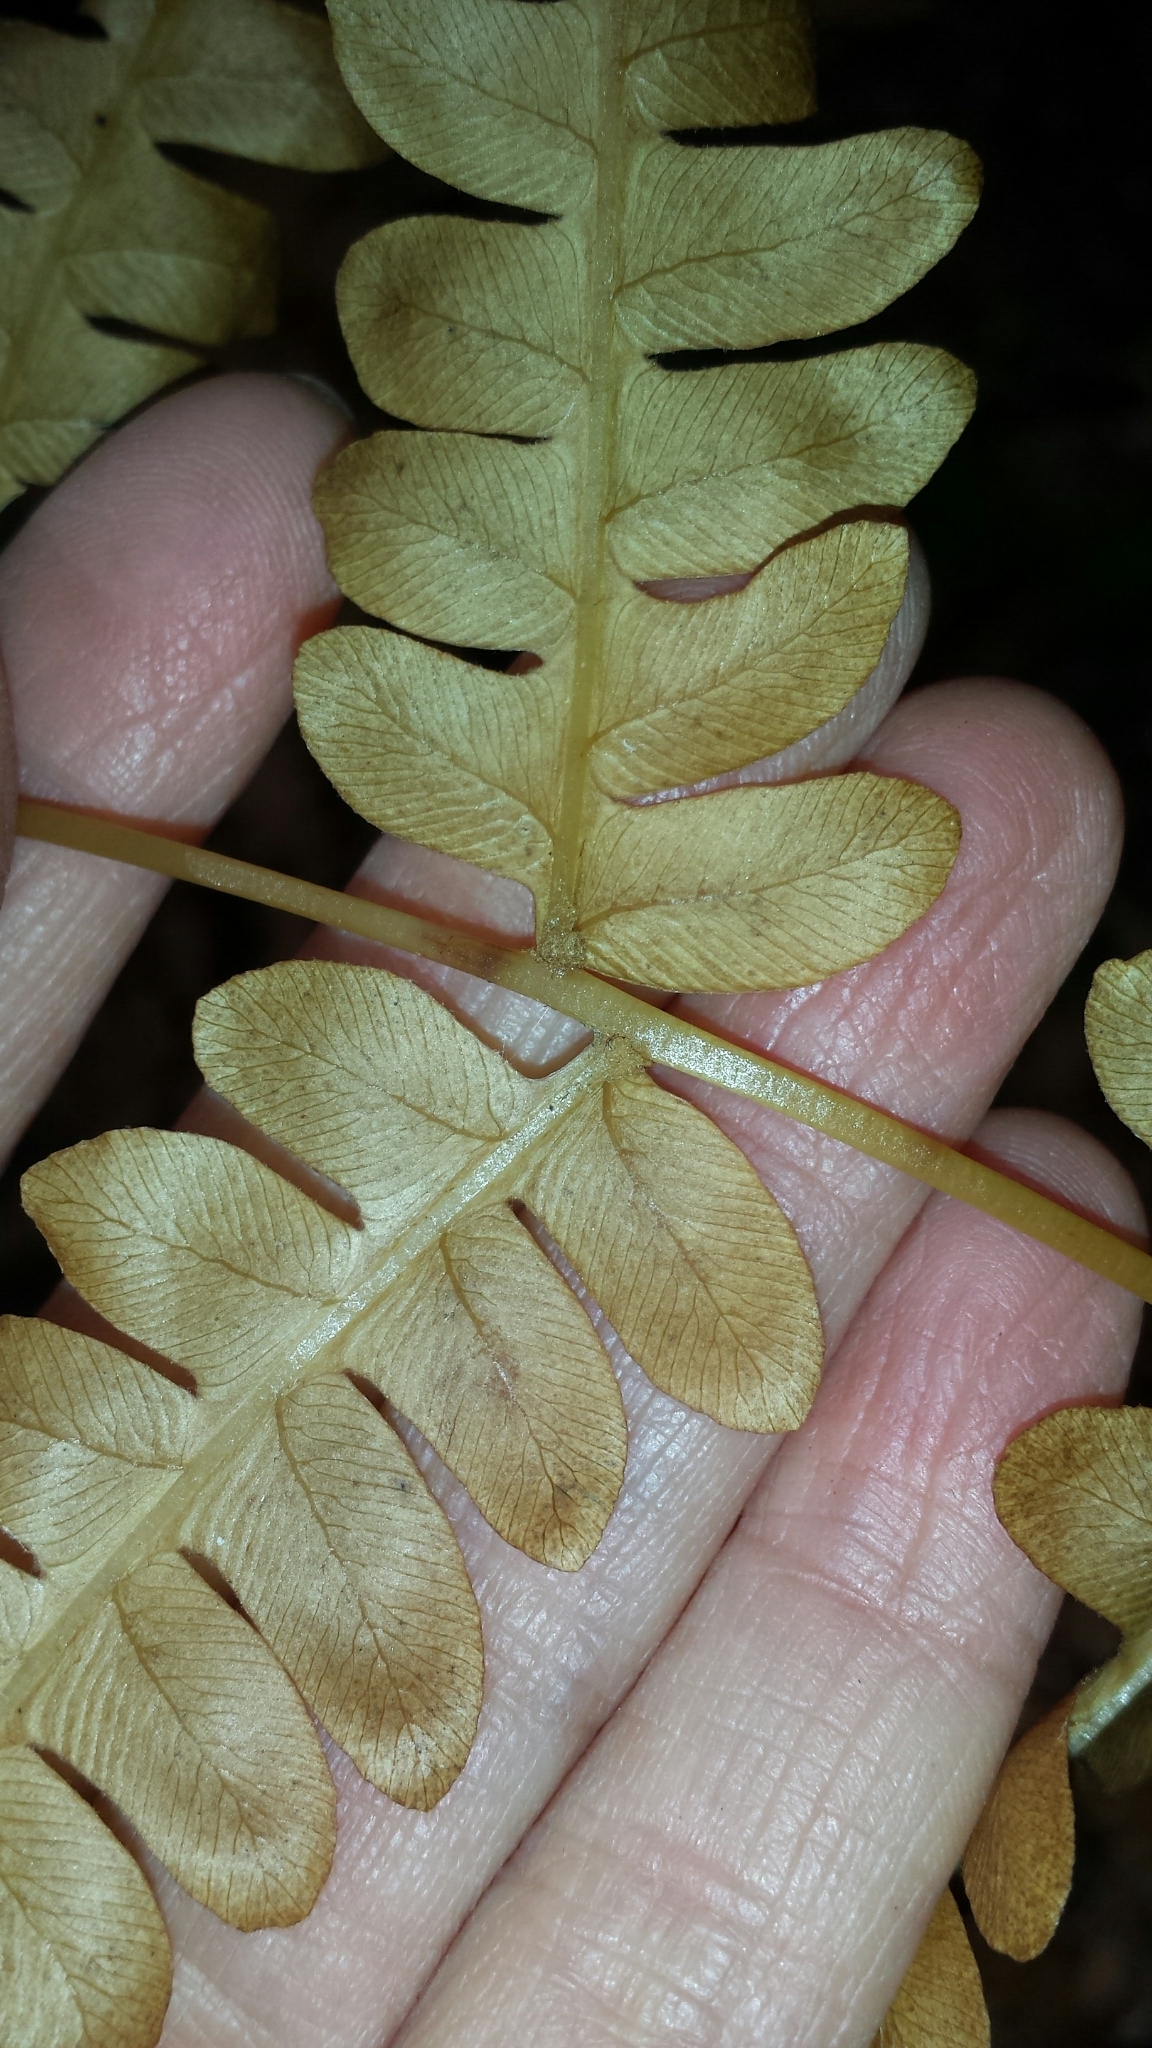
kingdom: Plantae
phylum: Tracheophyta
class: Polypodiopsida
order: Osmundales
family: Osmundaceae
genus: Osmundastrum
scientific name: Osmundastrum cinnamomeum
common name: Cinnamon fern
